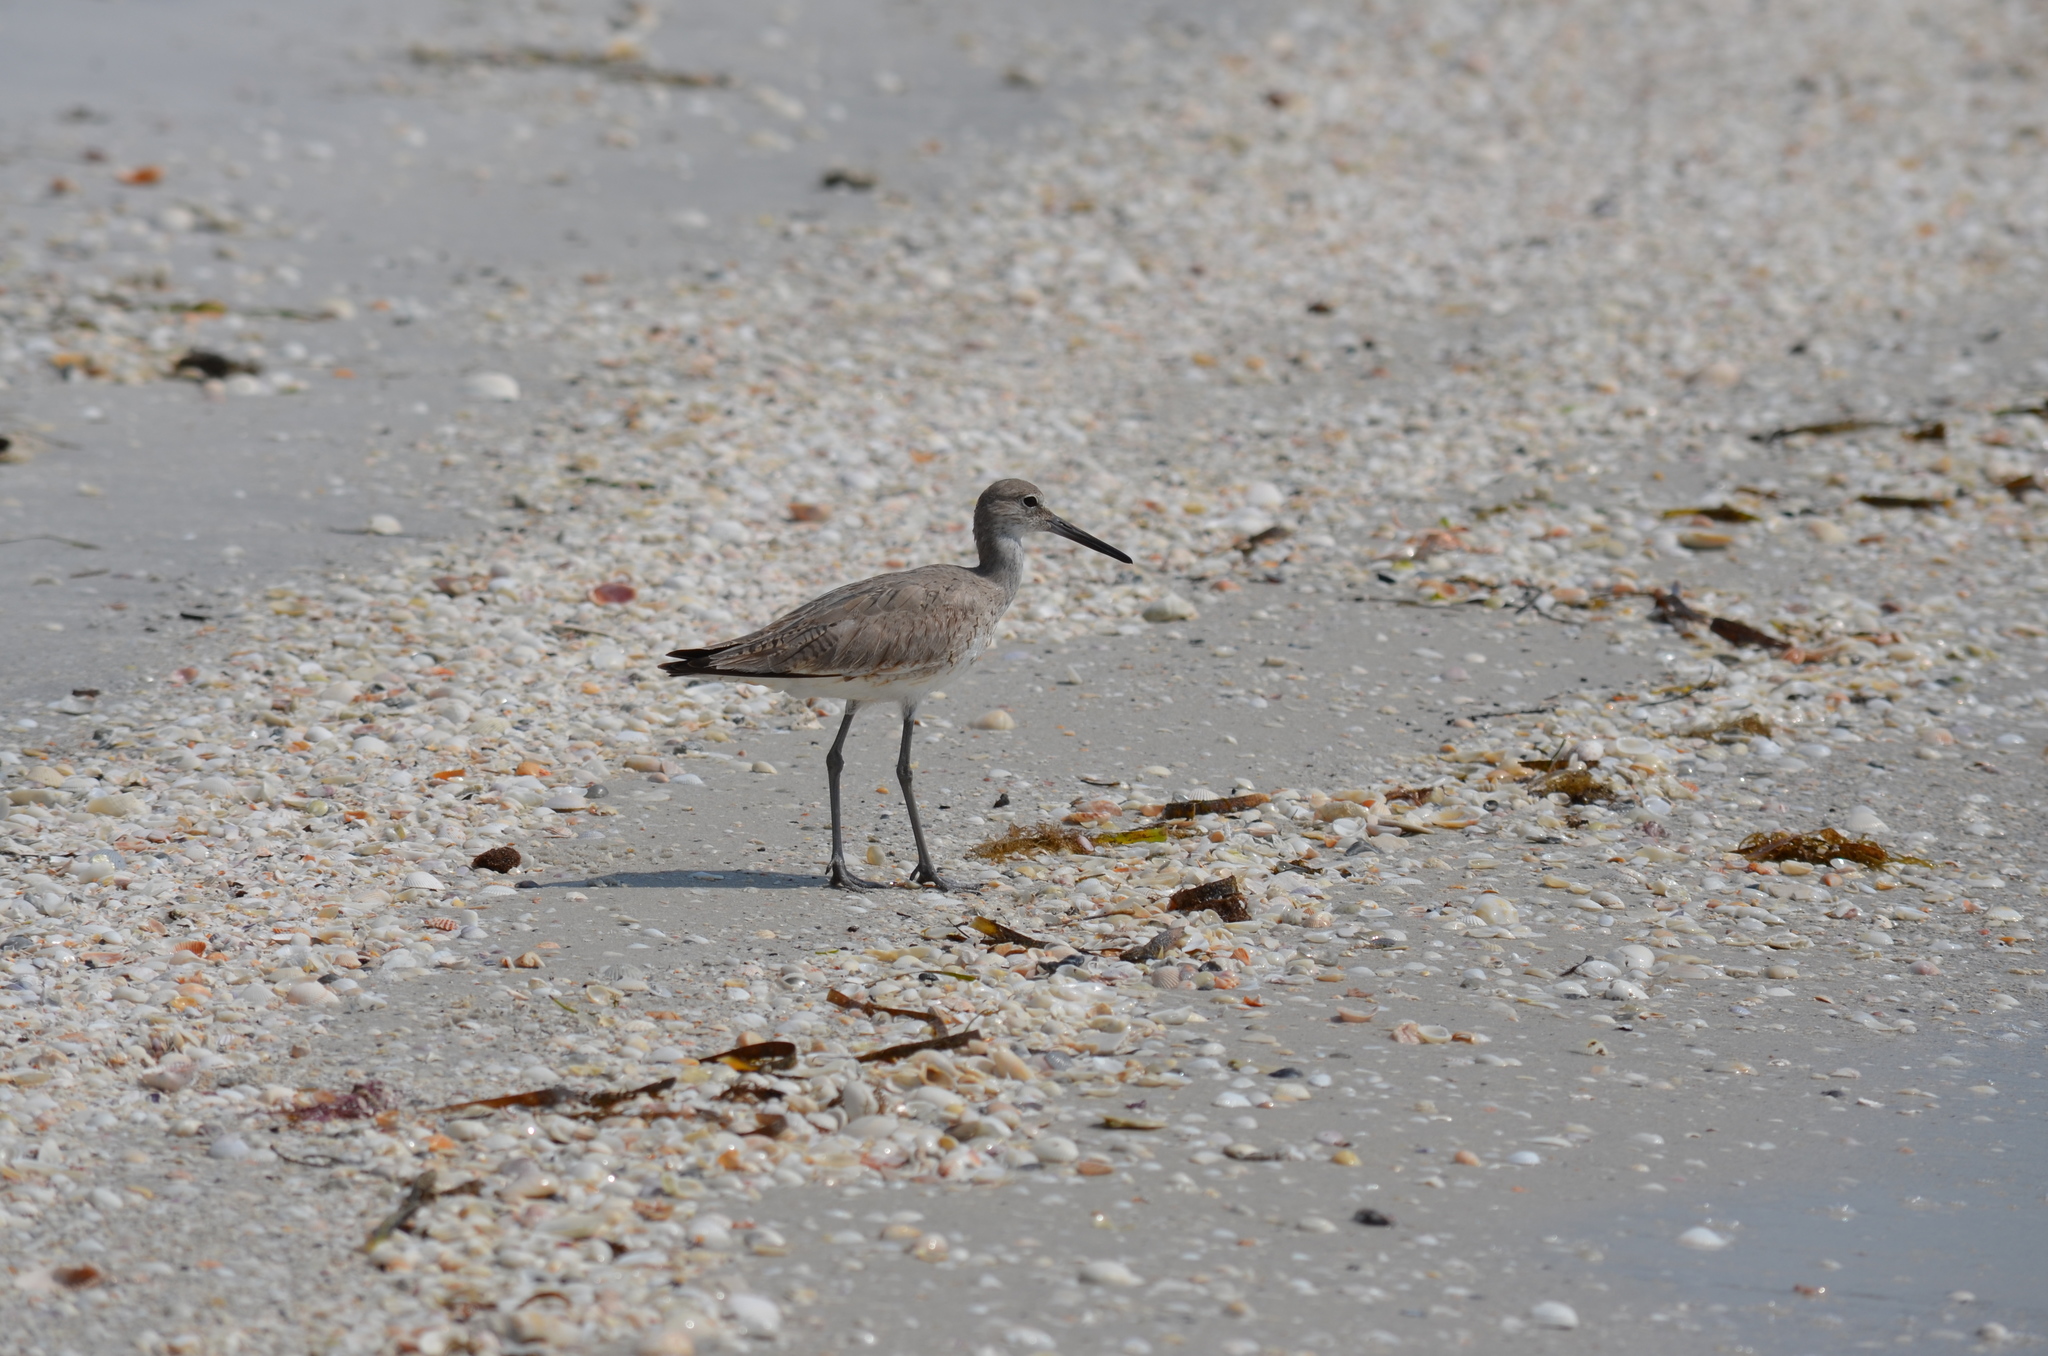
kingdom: Animalia
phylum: Chordata
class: Aves
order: Charadriiformes
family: Scolopacidae
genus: Tringa
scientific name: Tringa semipalmata
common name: Willet
